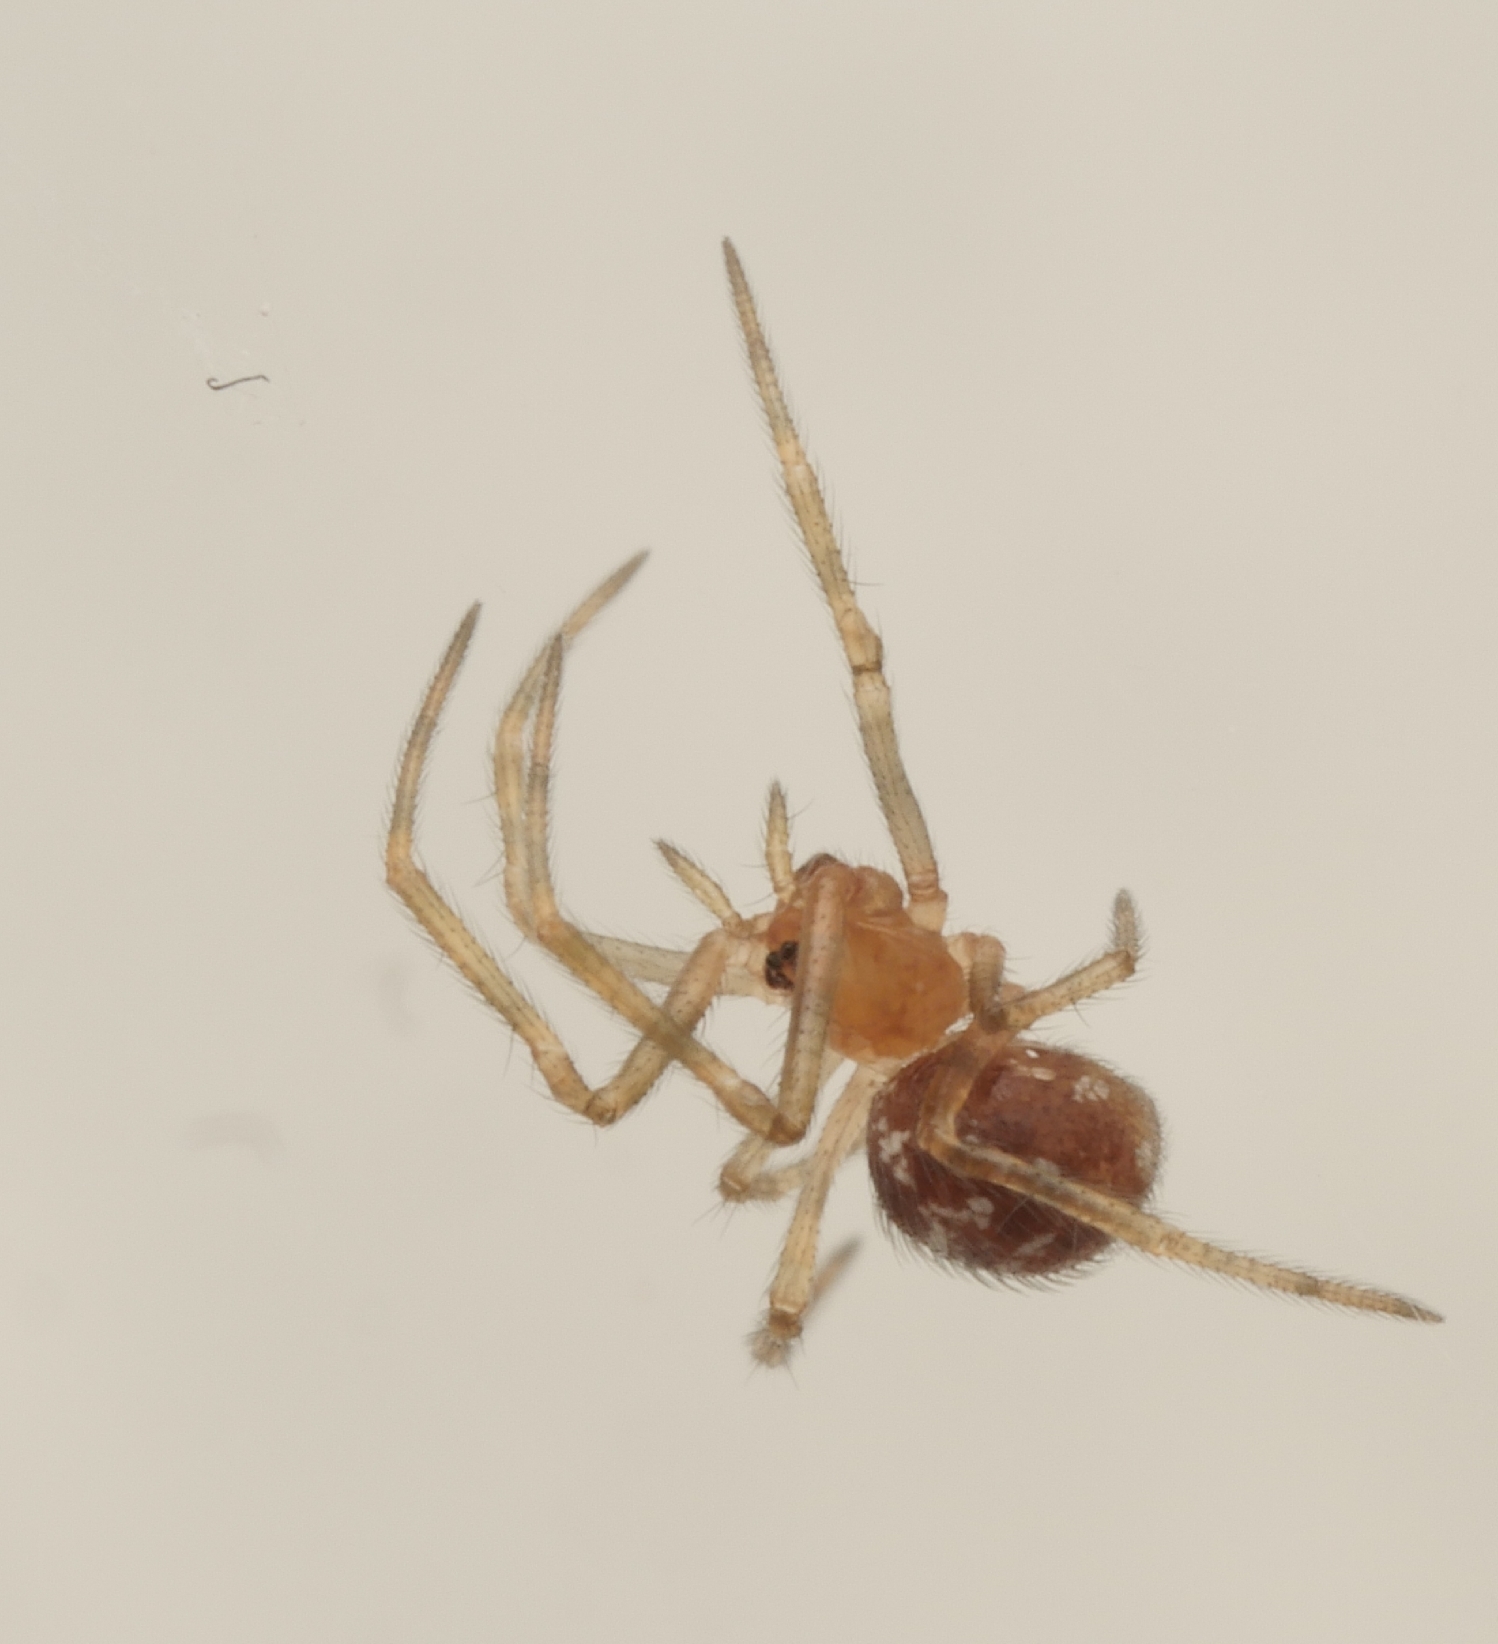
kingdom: Animalia
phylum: Arthropoda
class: Arachnida
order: Araneae
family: Theridiidae
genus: Steatoda
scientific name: Steatoda triangulosa
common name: Triangulate bud spider
